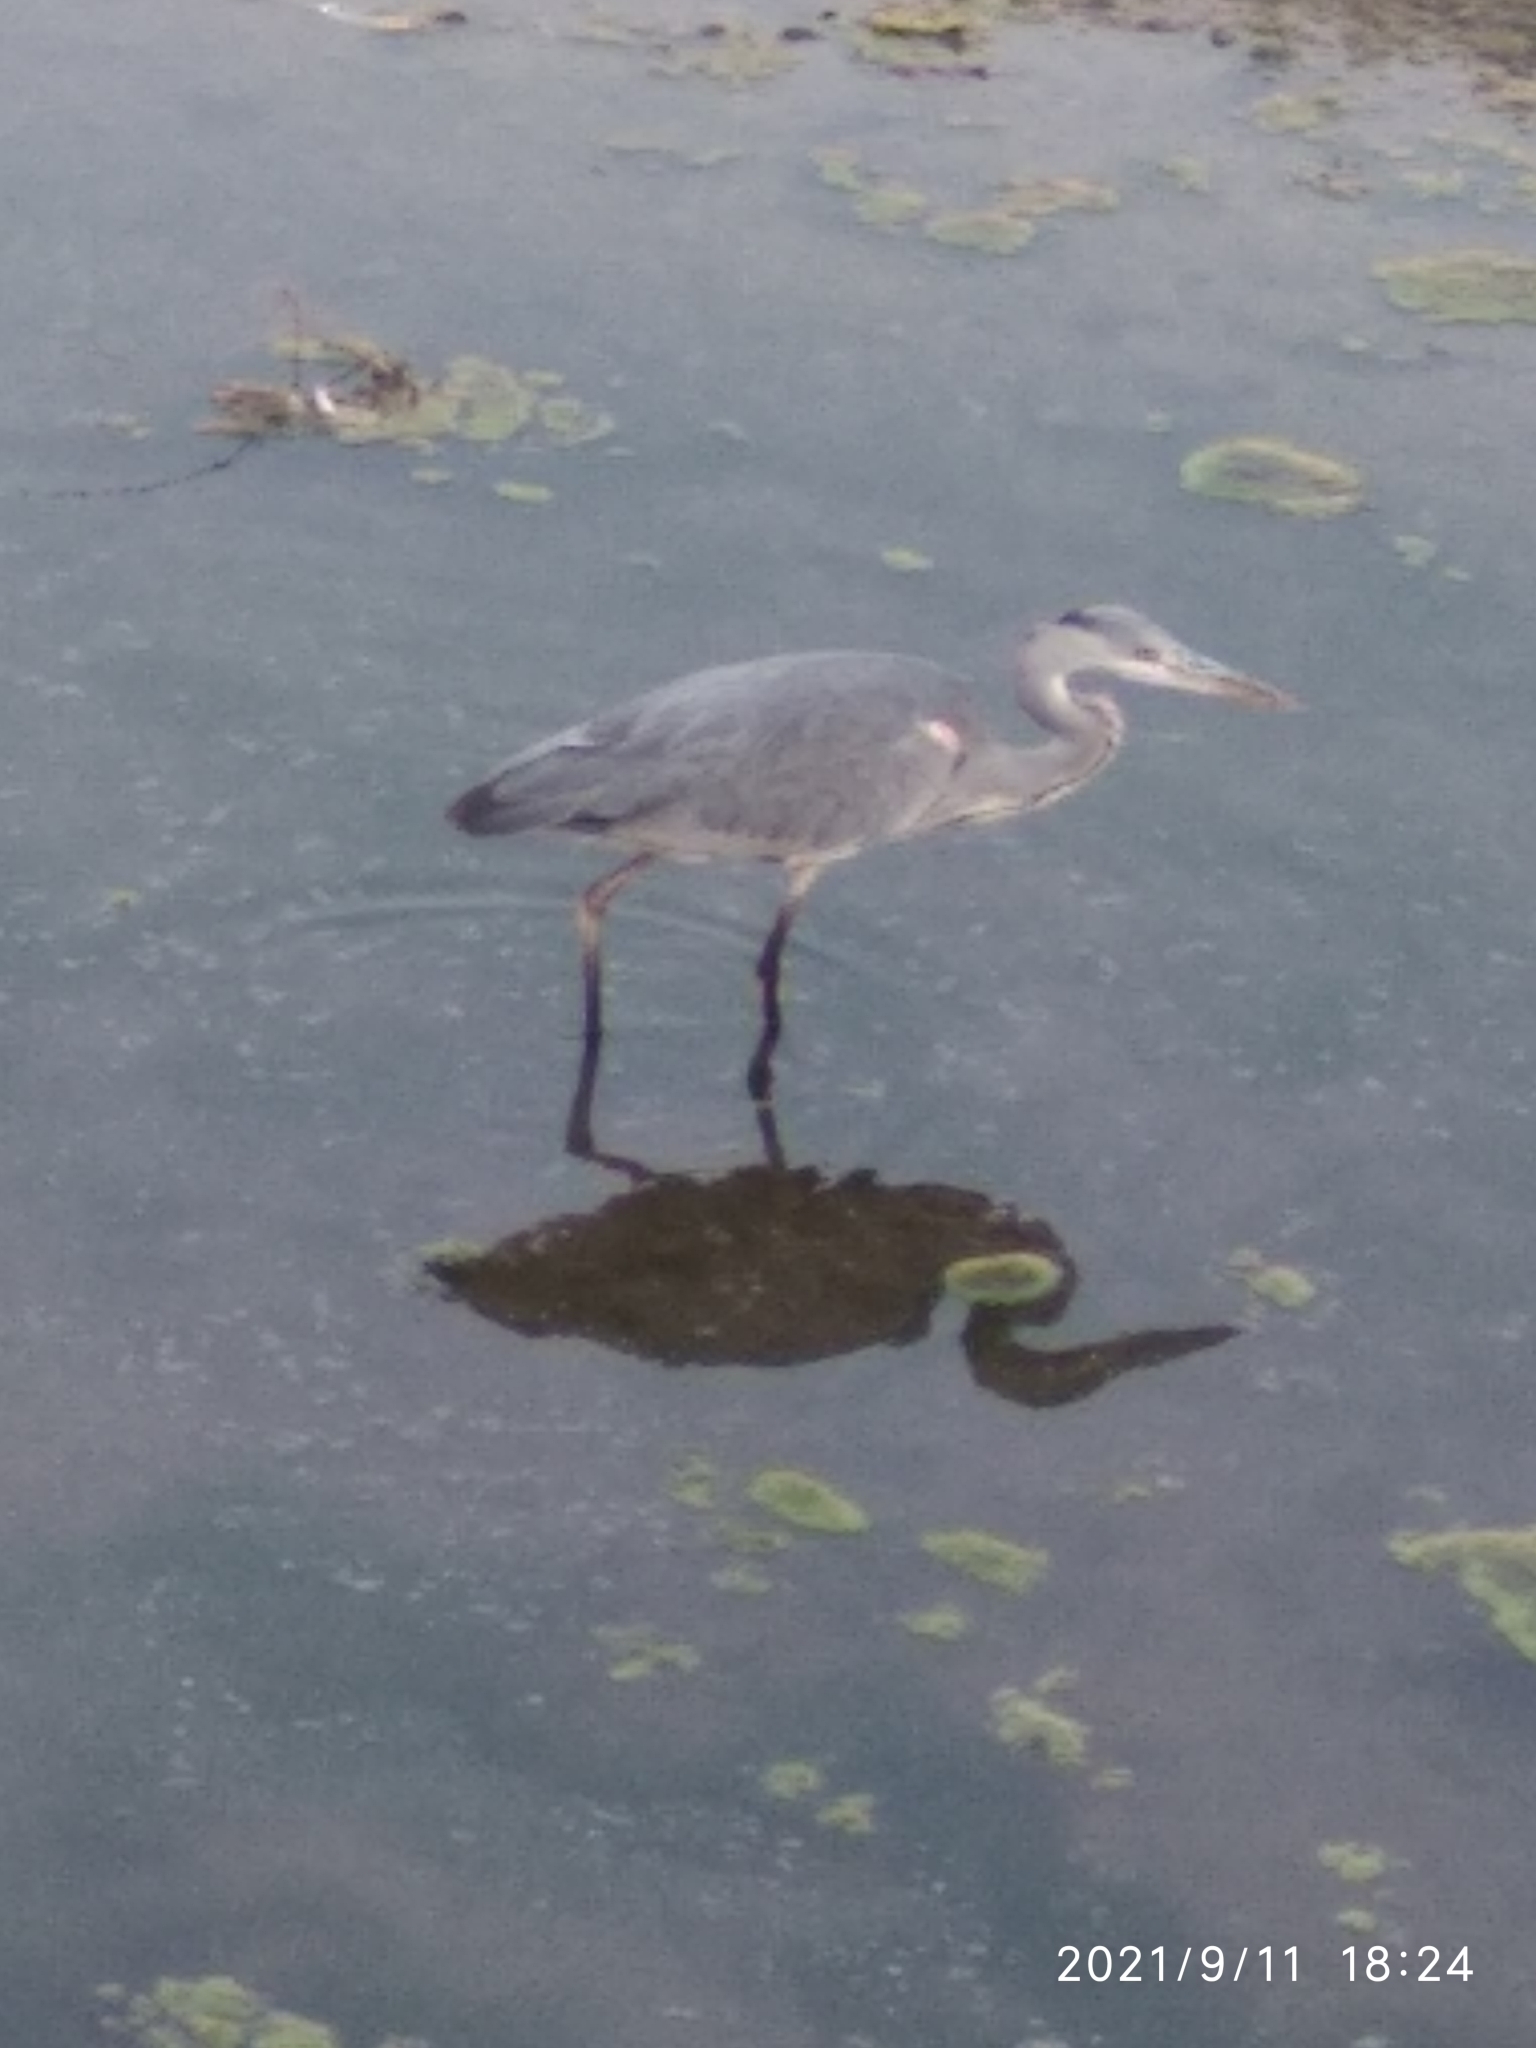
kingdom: Animalia
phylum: Chordata
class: Aves
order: Pelecaniformes
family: Ardeidae
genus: Ardea
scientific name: Ardea cinerea
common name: Grey heron
